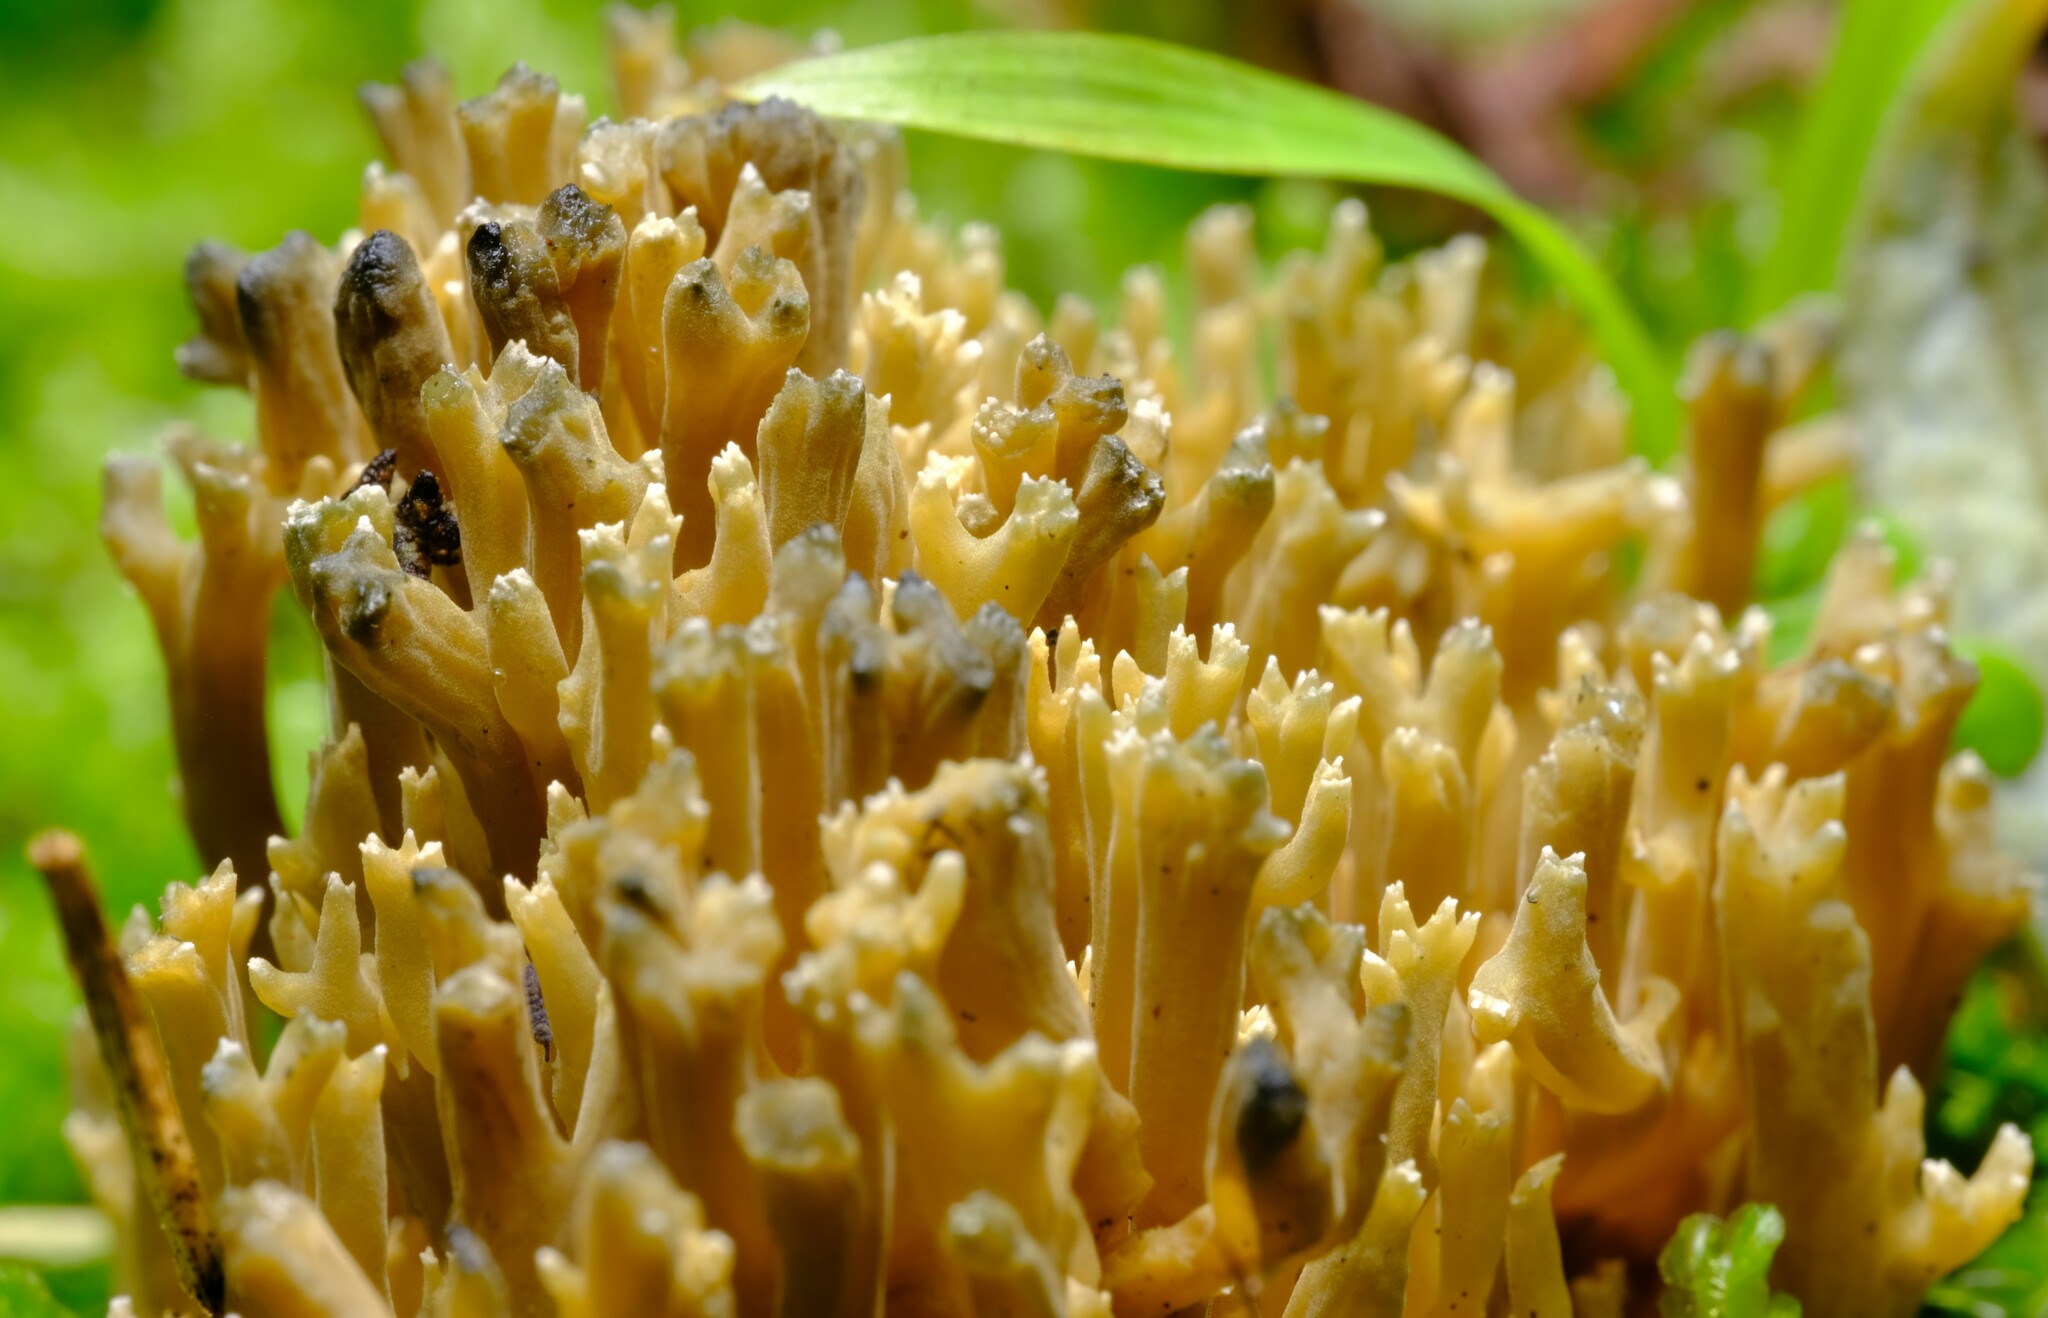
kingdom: Fungi
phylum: Basidiomycota
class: Agaricomycetes
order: Gomphales
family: Gomphaceae
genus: Phaeoclavulina
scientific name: Phaeoclavulina
